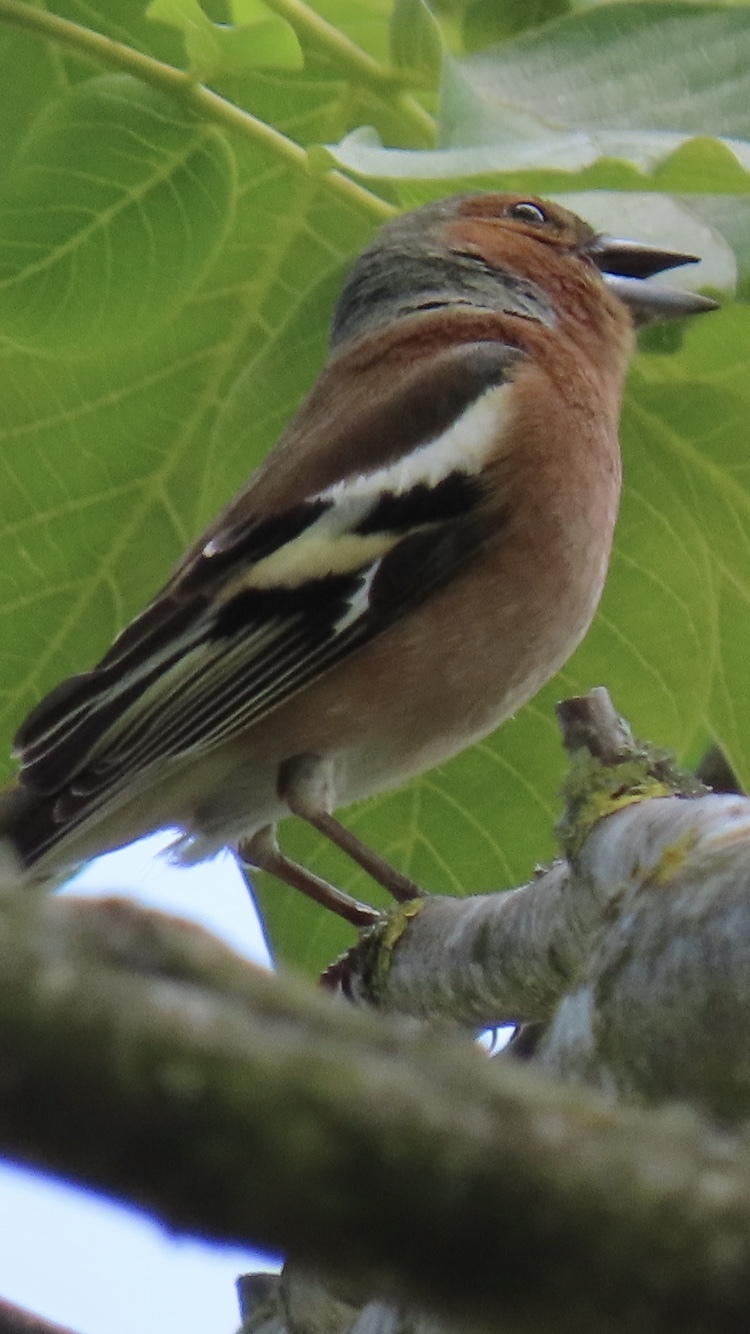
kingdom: Animalia
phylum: Chordata
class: Aves
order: Passeriformes
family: Fringillidae
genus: Fringilla
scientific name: Fringilla coelebs
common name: Common chaffinch
